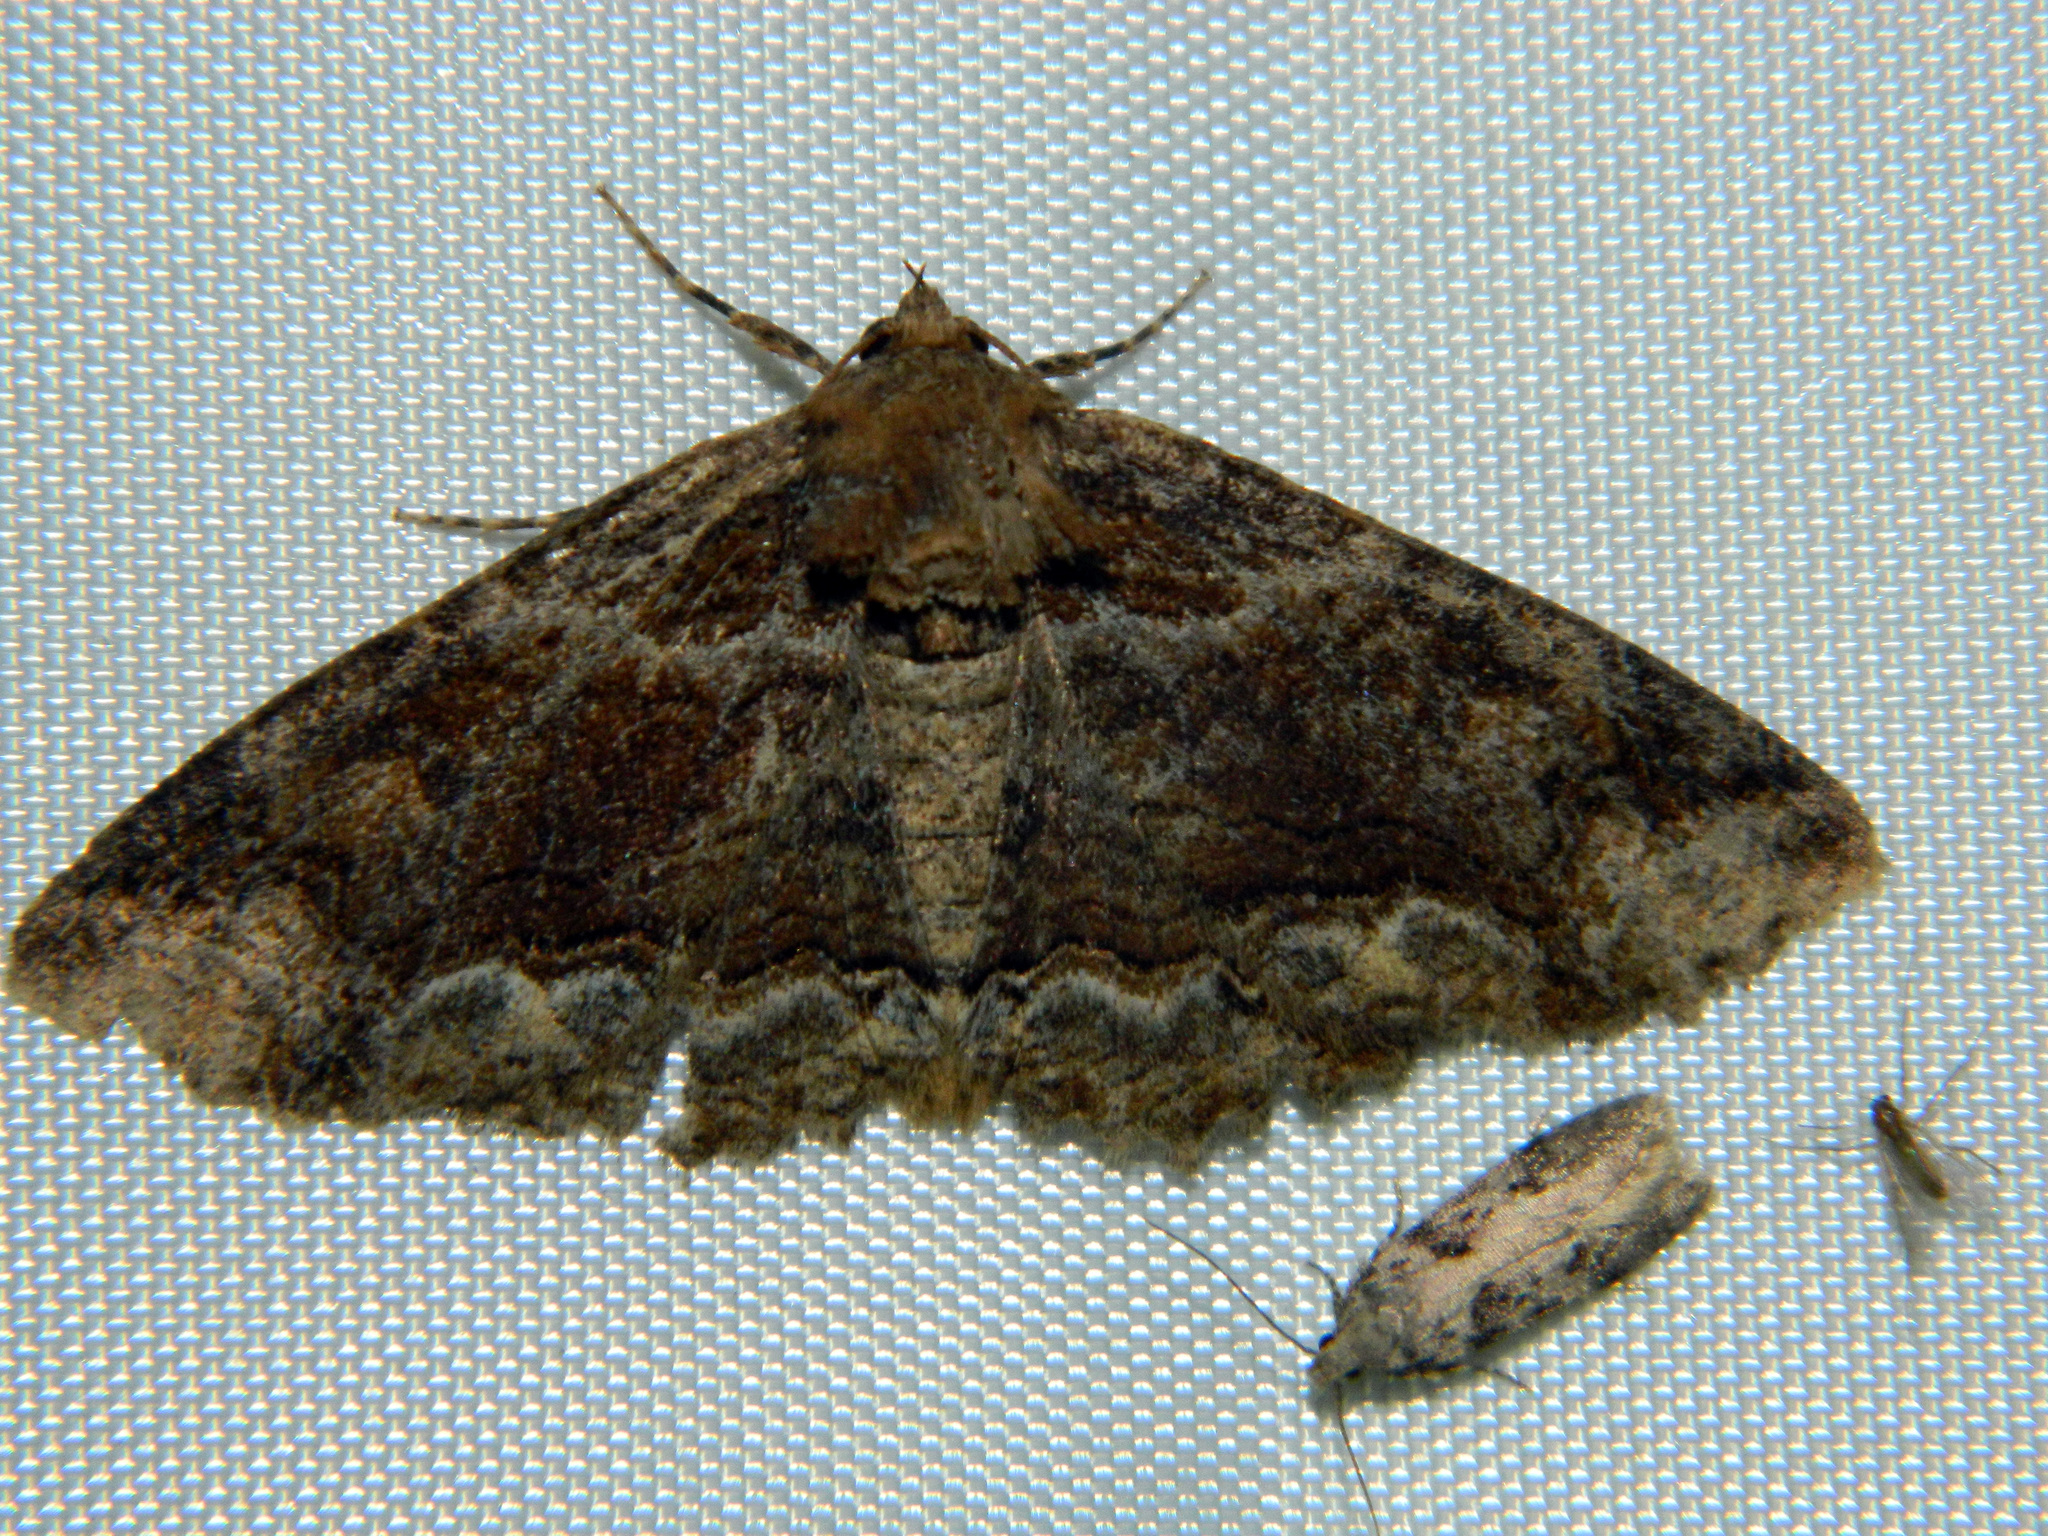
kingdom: Animalia
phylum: Arthropoda
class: Insecta
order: Lepidoptera
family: Erebidae
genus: Zale
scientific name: Zale minerea
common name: Colorful zale moth
